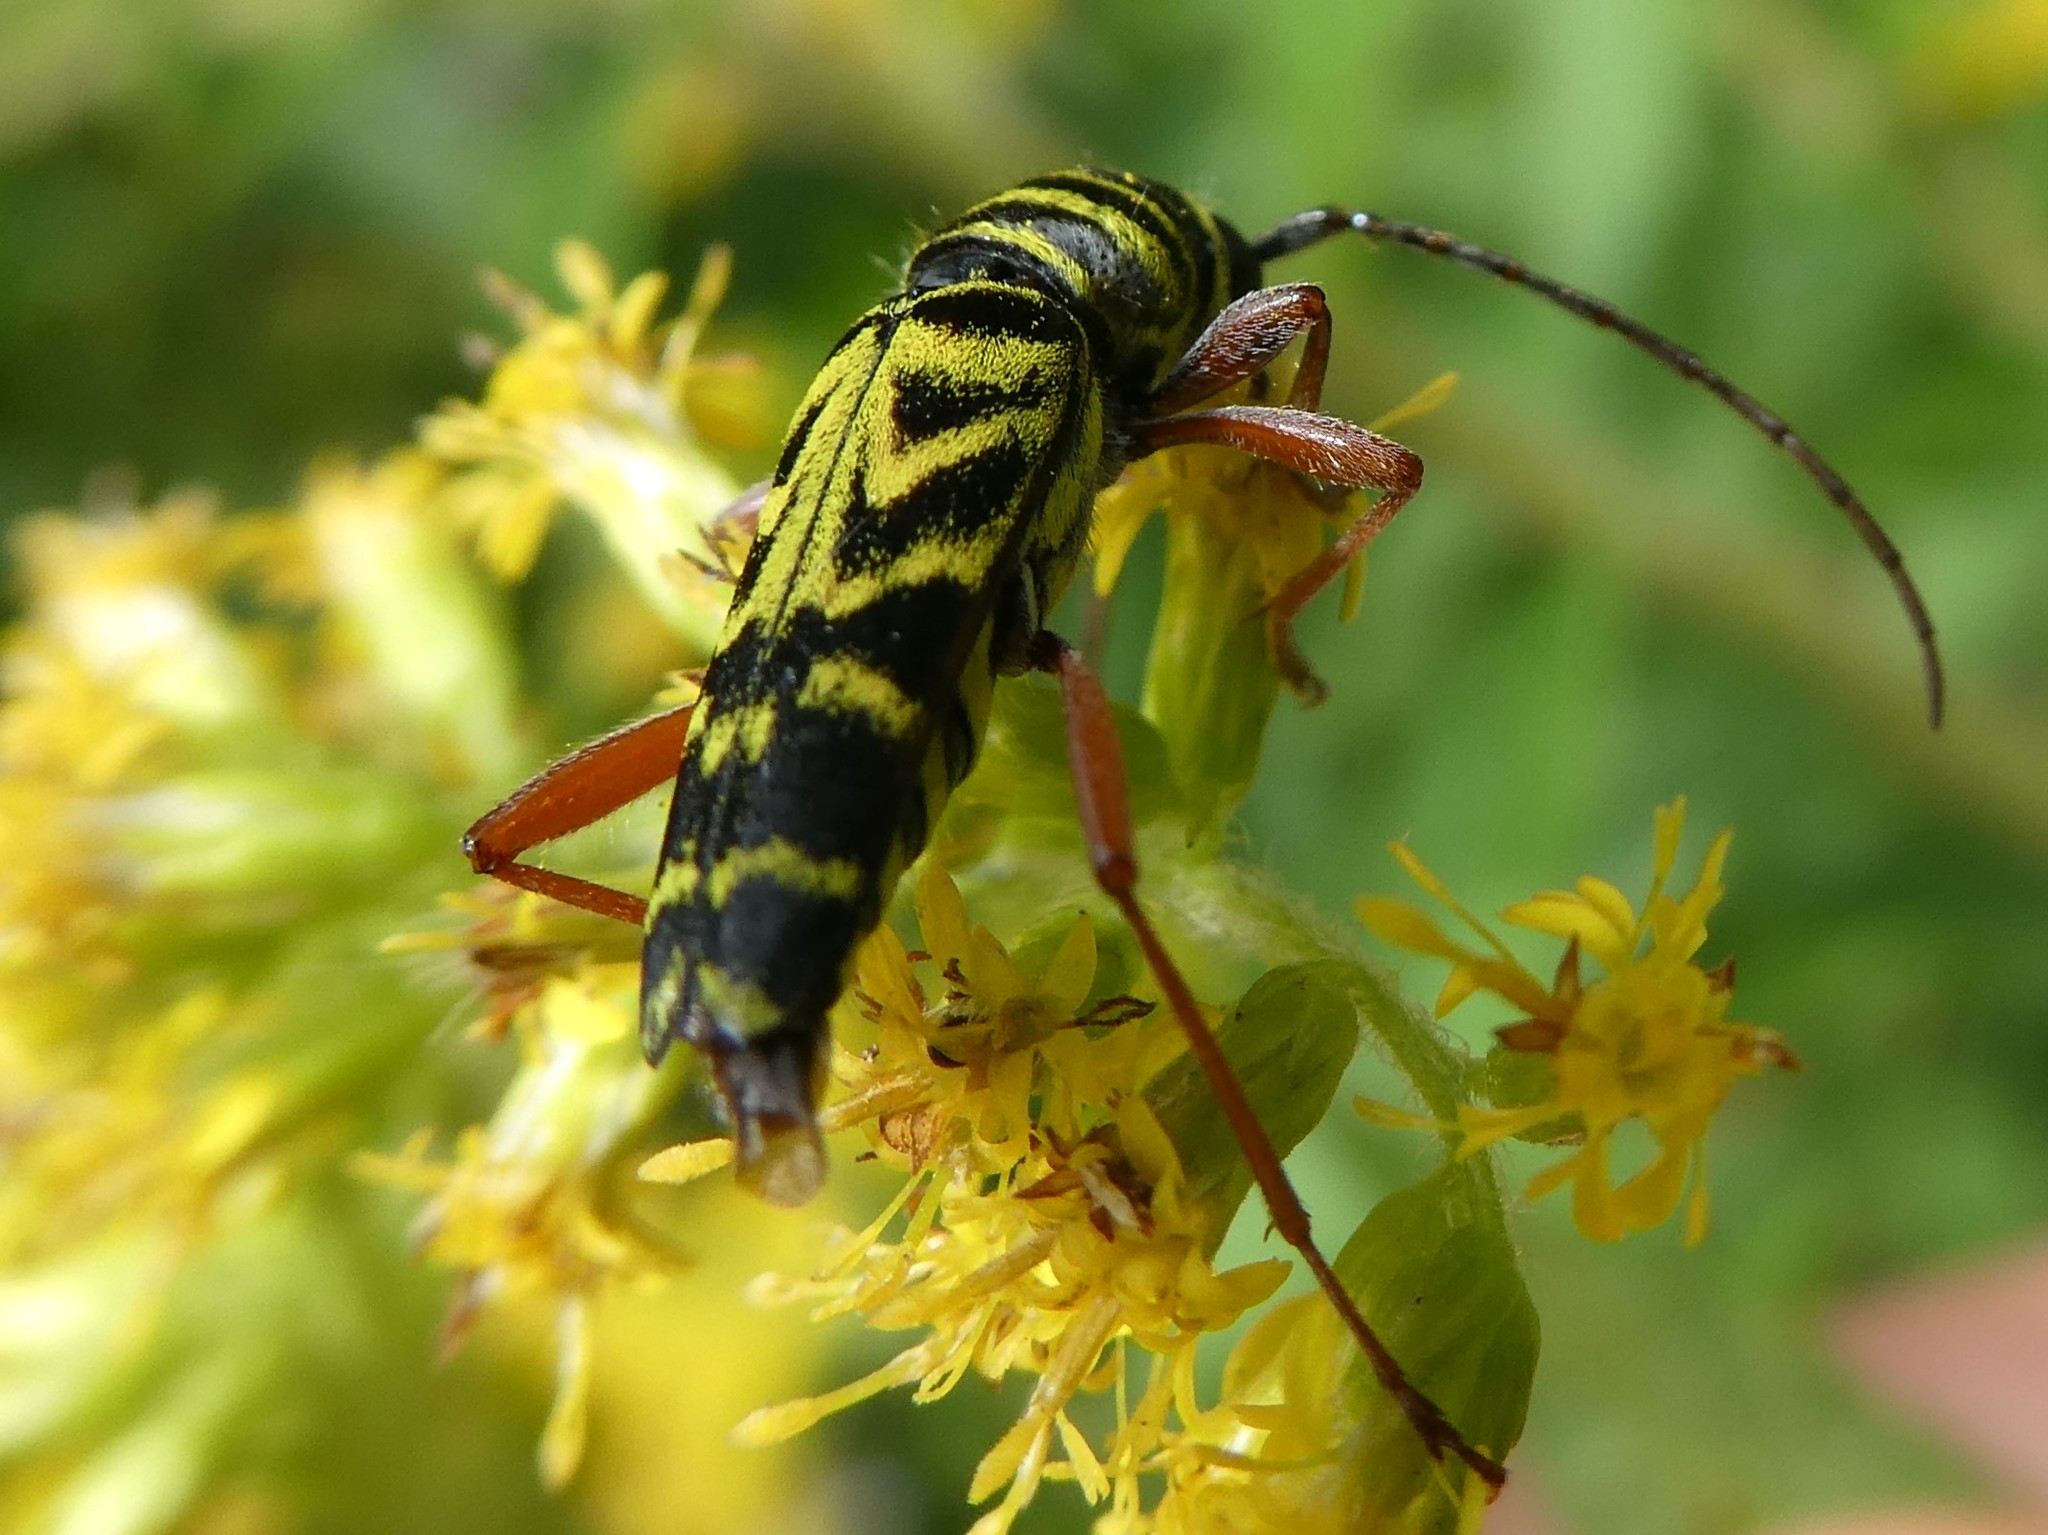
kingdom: Animalia
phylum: Arthropoda
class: Insecta
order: Coleoptera
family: Cerambycidae
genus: Megacyllene
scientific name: Megacyllene robiniae
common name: Locust borer
